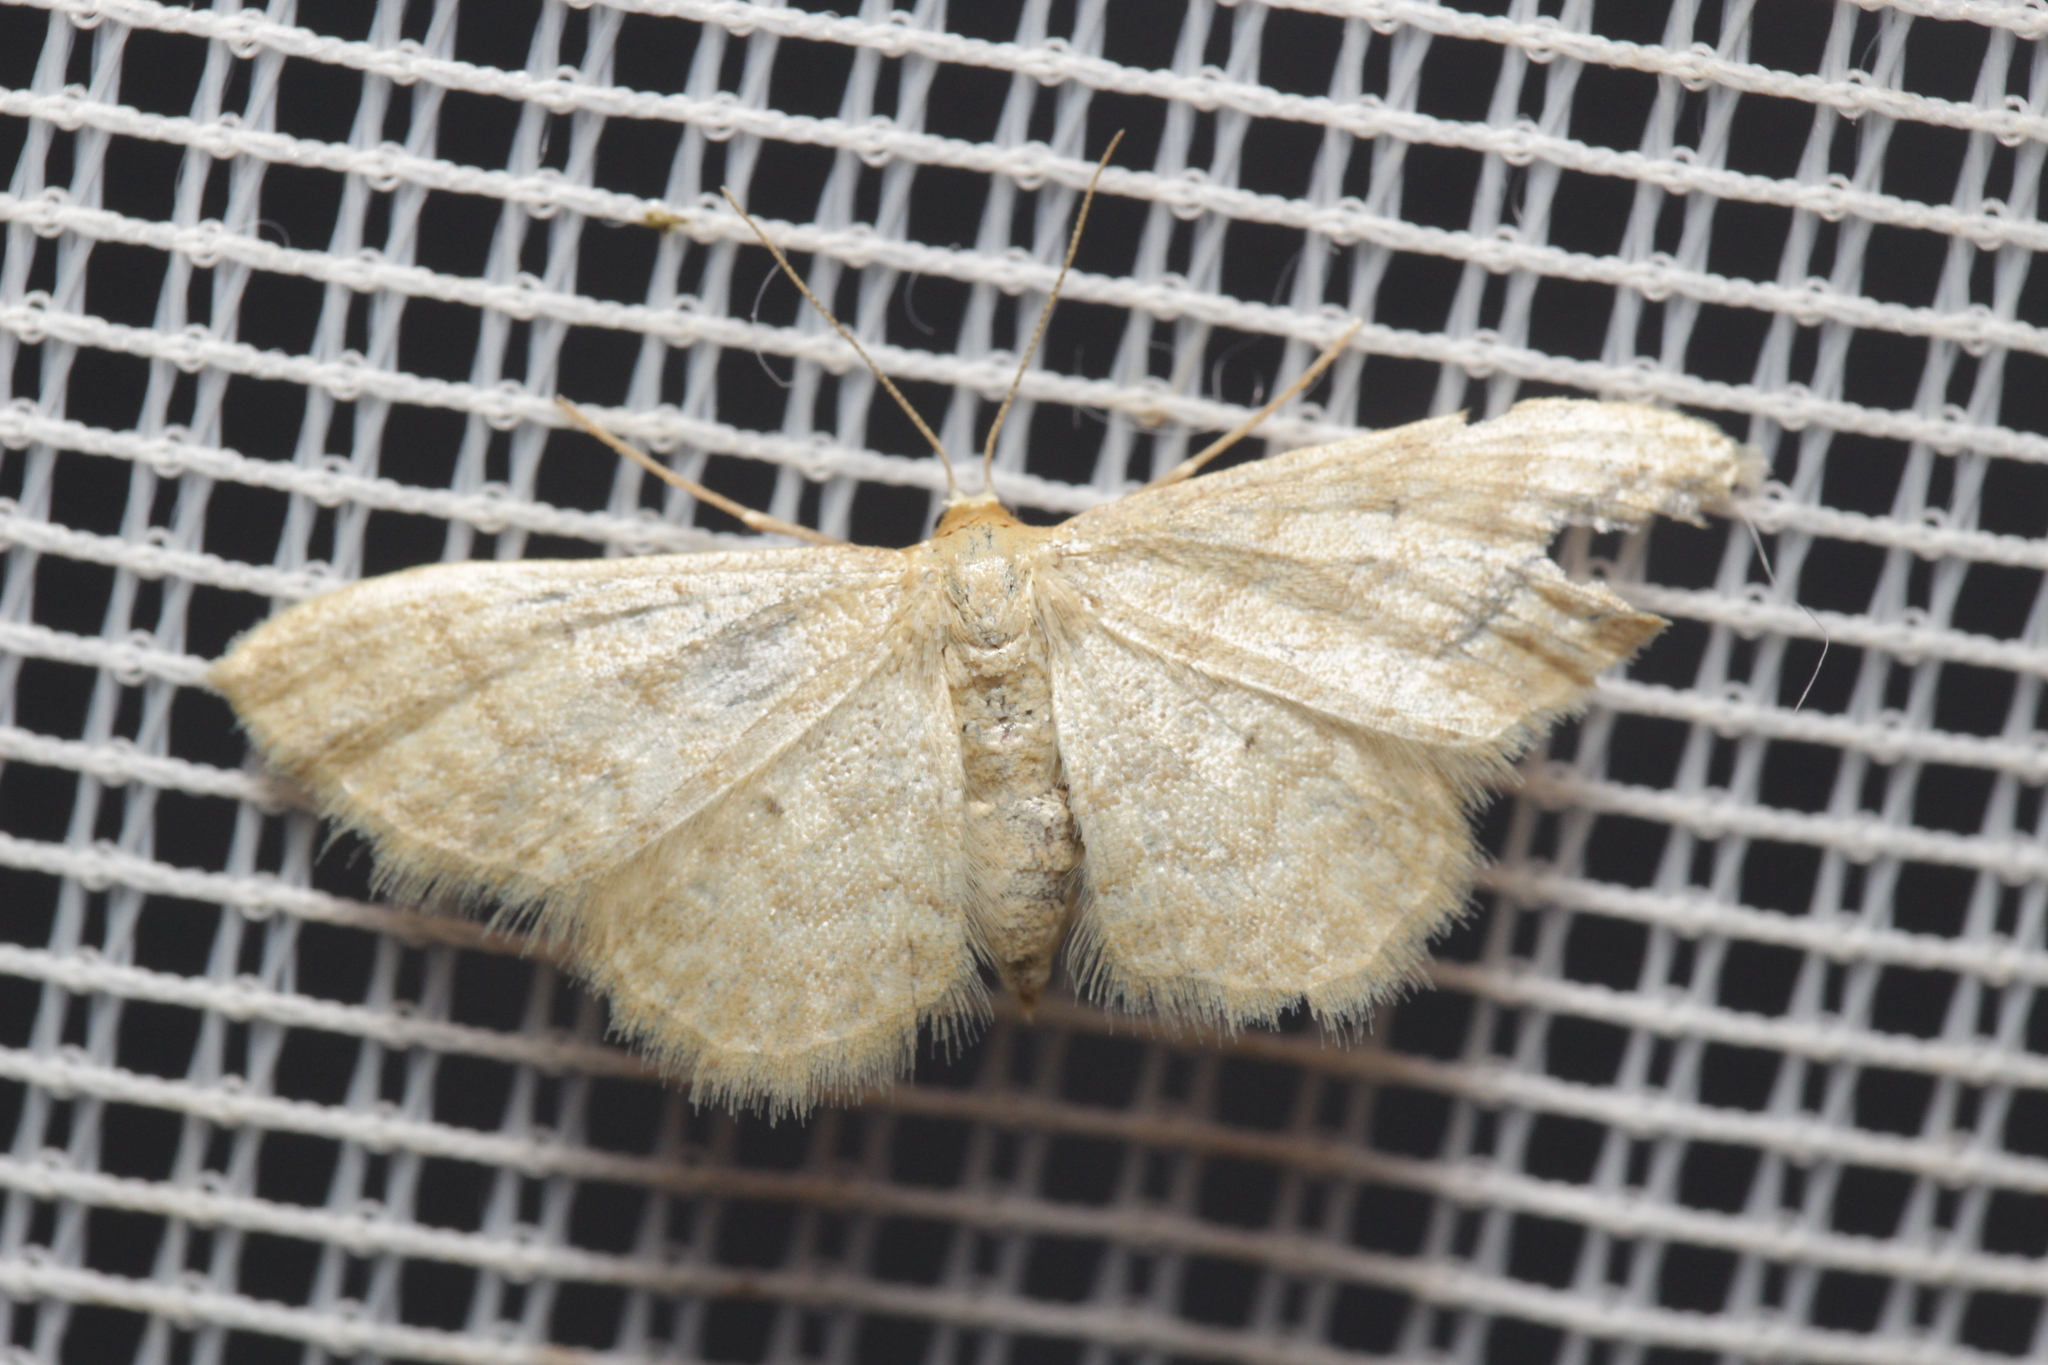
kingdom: Animalia
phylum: Arthropoda
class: Insecta
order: Lepidoptera
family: Geometridae
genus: Idaea
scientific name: Idaea dilutaria
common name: Silky wave
